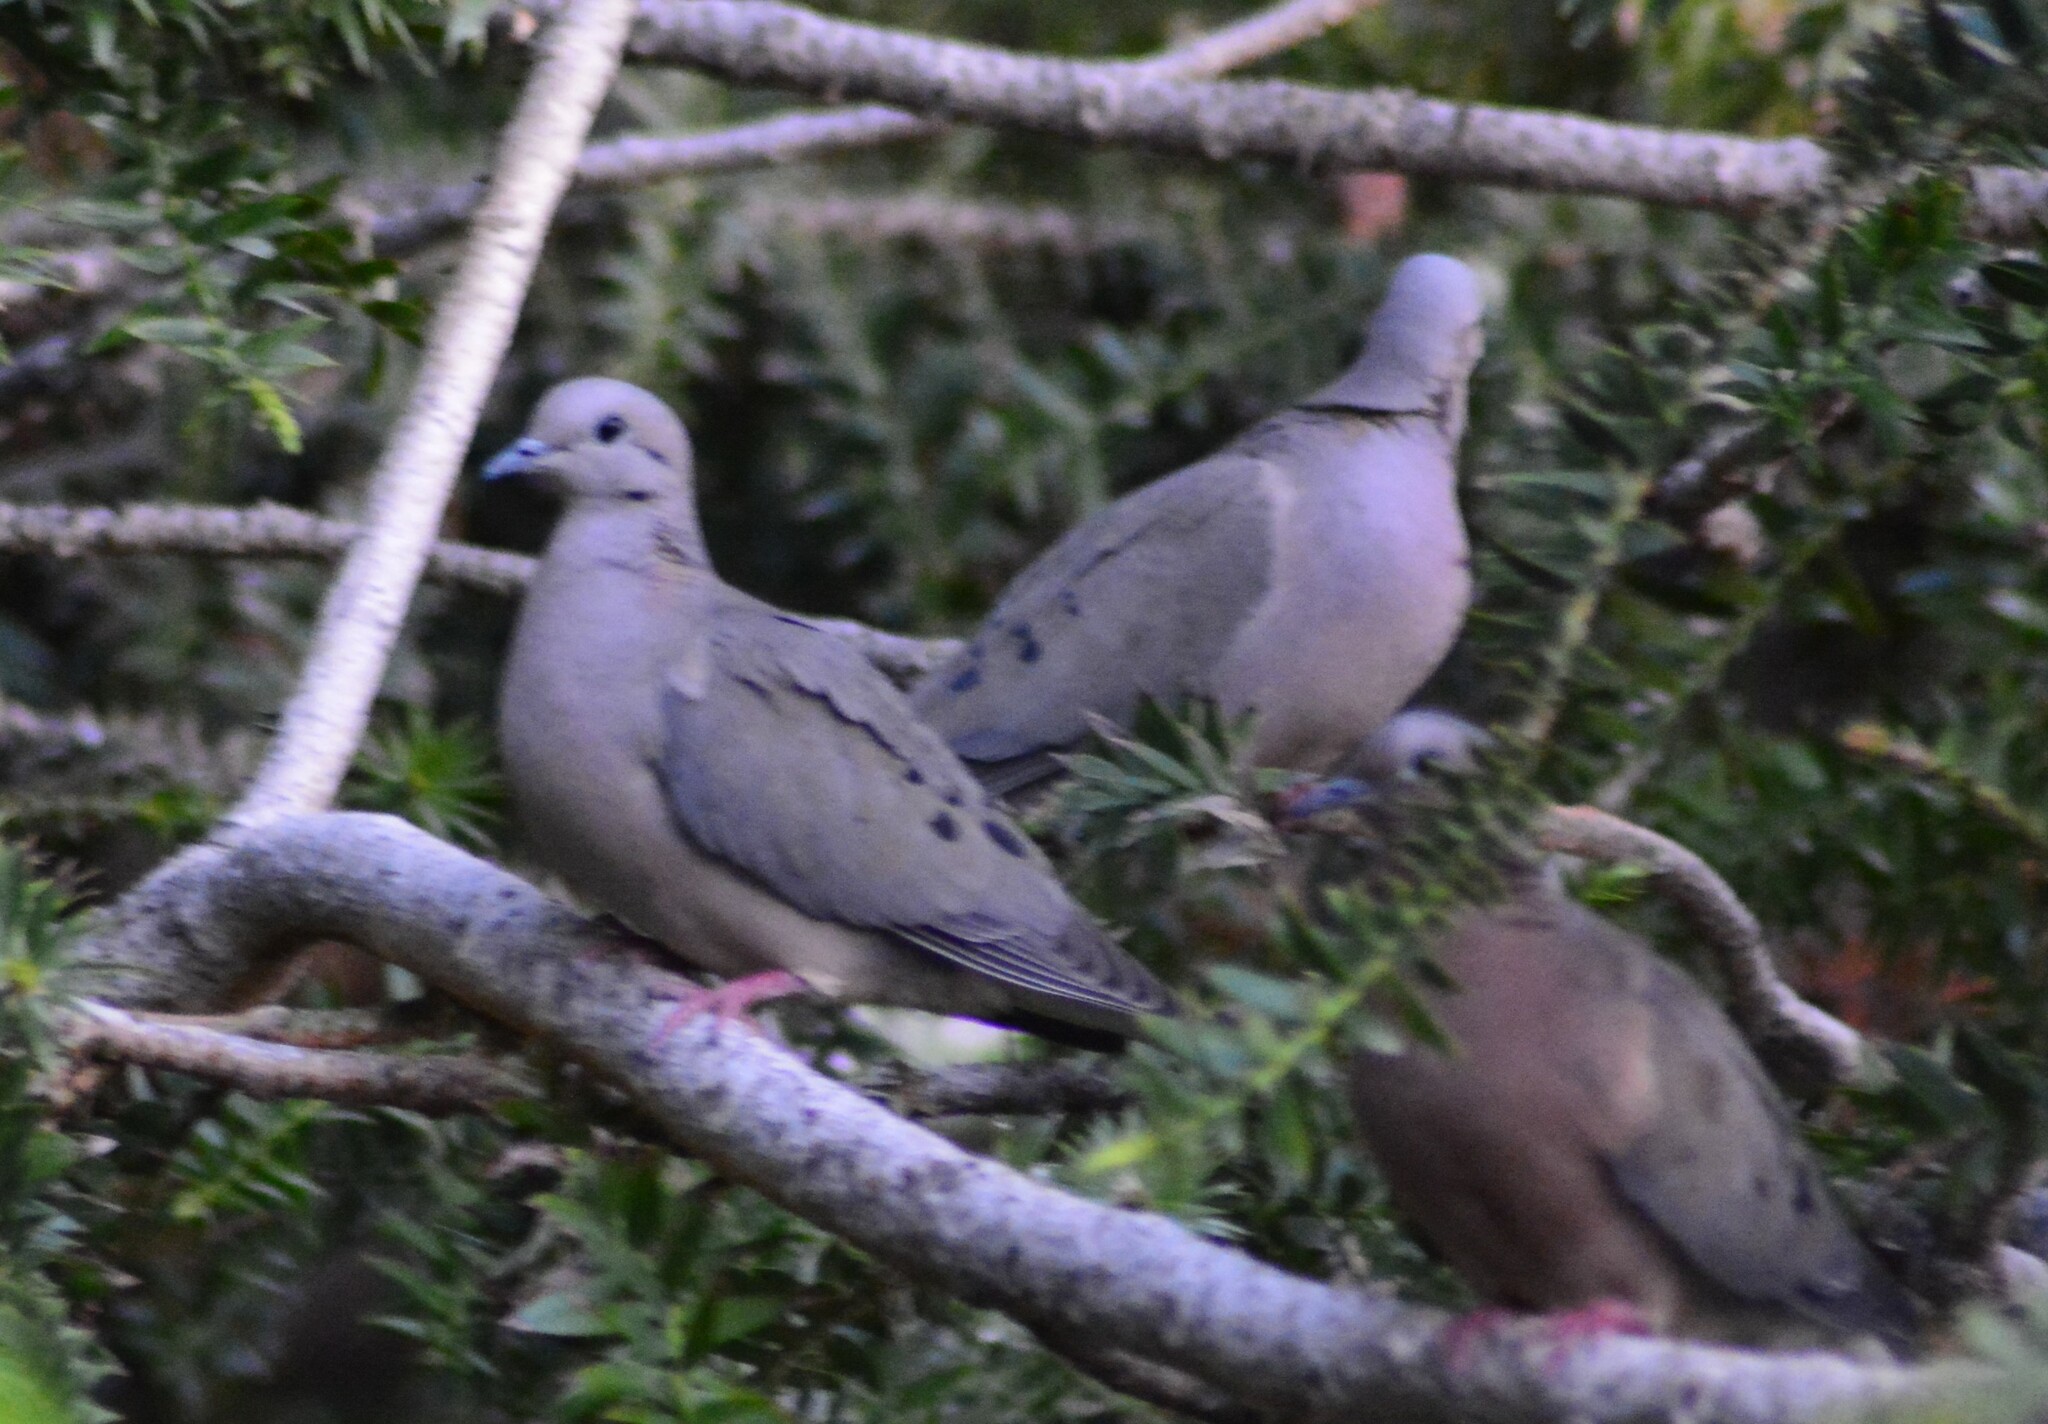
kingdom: Animalia
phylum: Chordata
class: Aves
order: Columbiformes
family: Columbidae
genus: Zenaida
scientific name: Zenaida auriculata
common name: Eared dove
